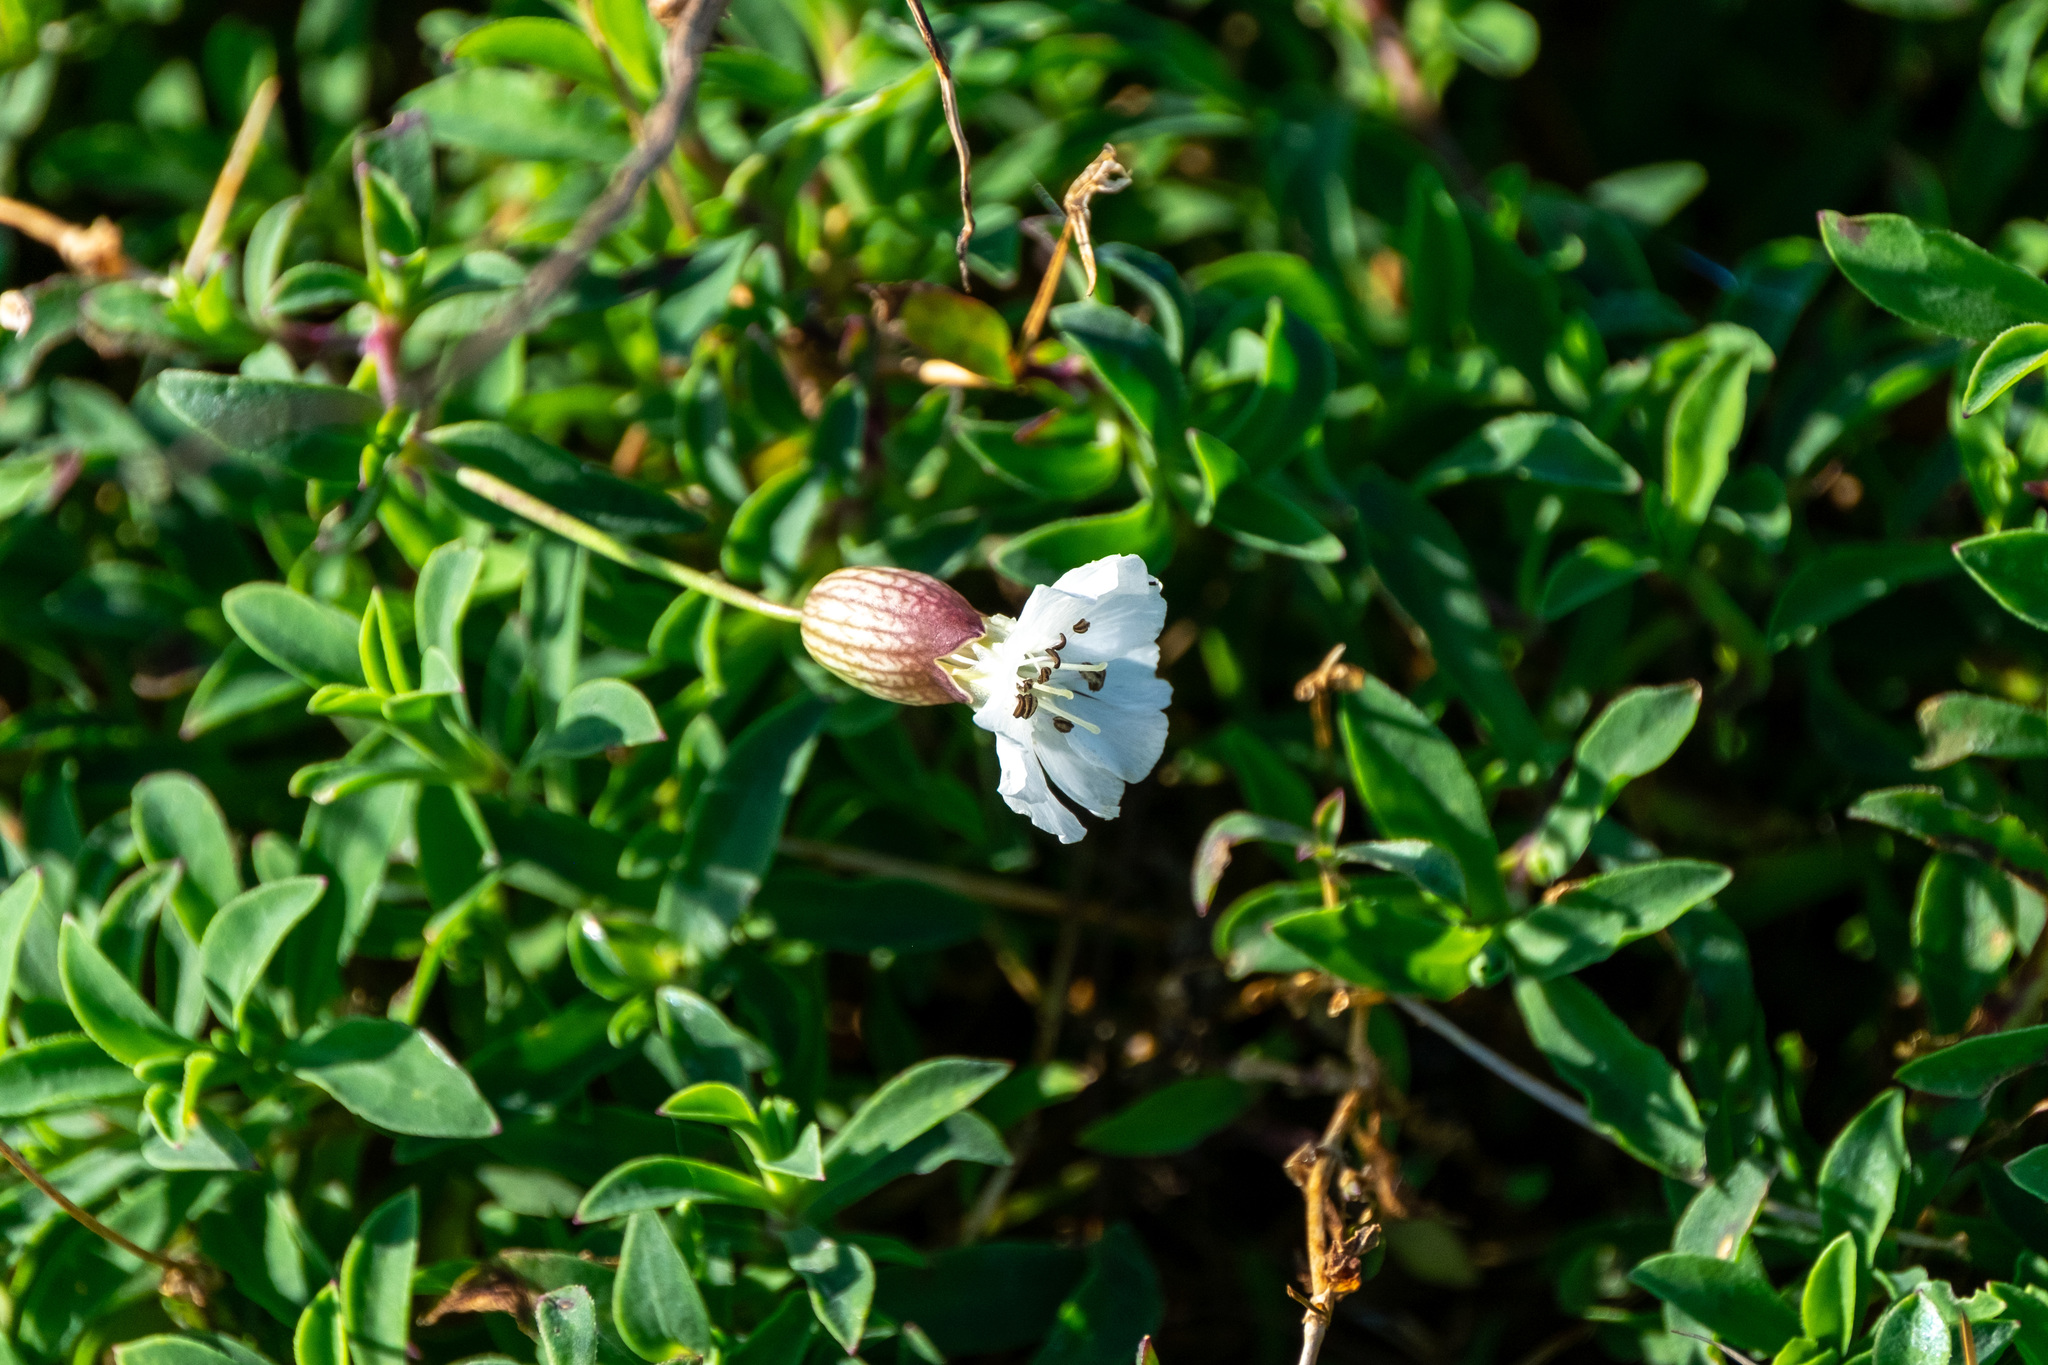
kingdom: Plantae
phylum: Tracheophyta
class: Magnoliopsida
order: Caryophyllales
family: Caryophyllaceae
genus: Silene
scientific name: Silene uniflora
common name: Sea campion
